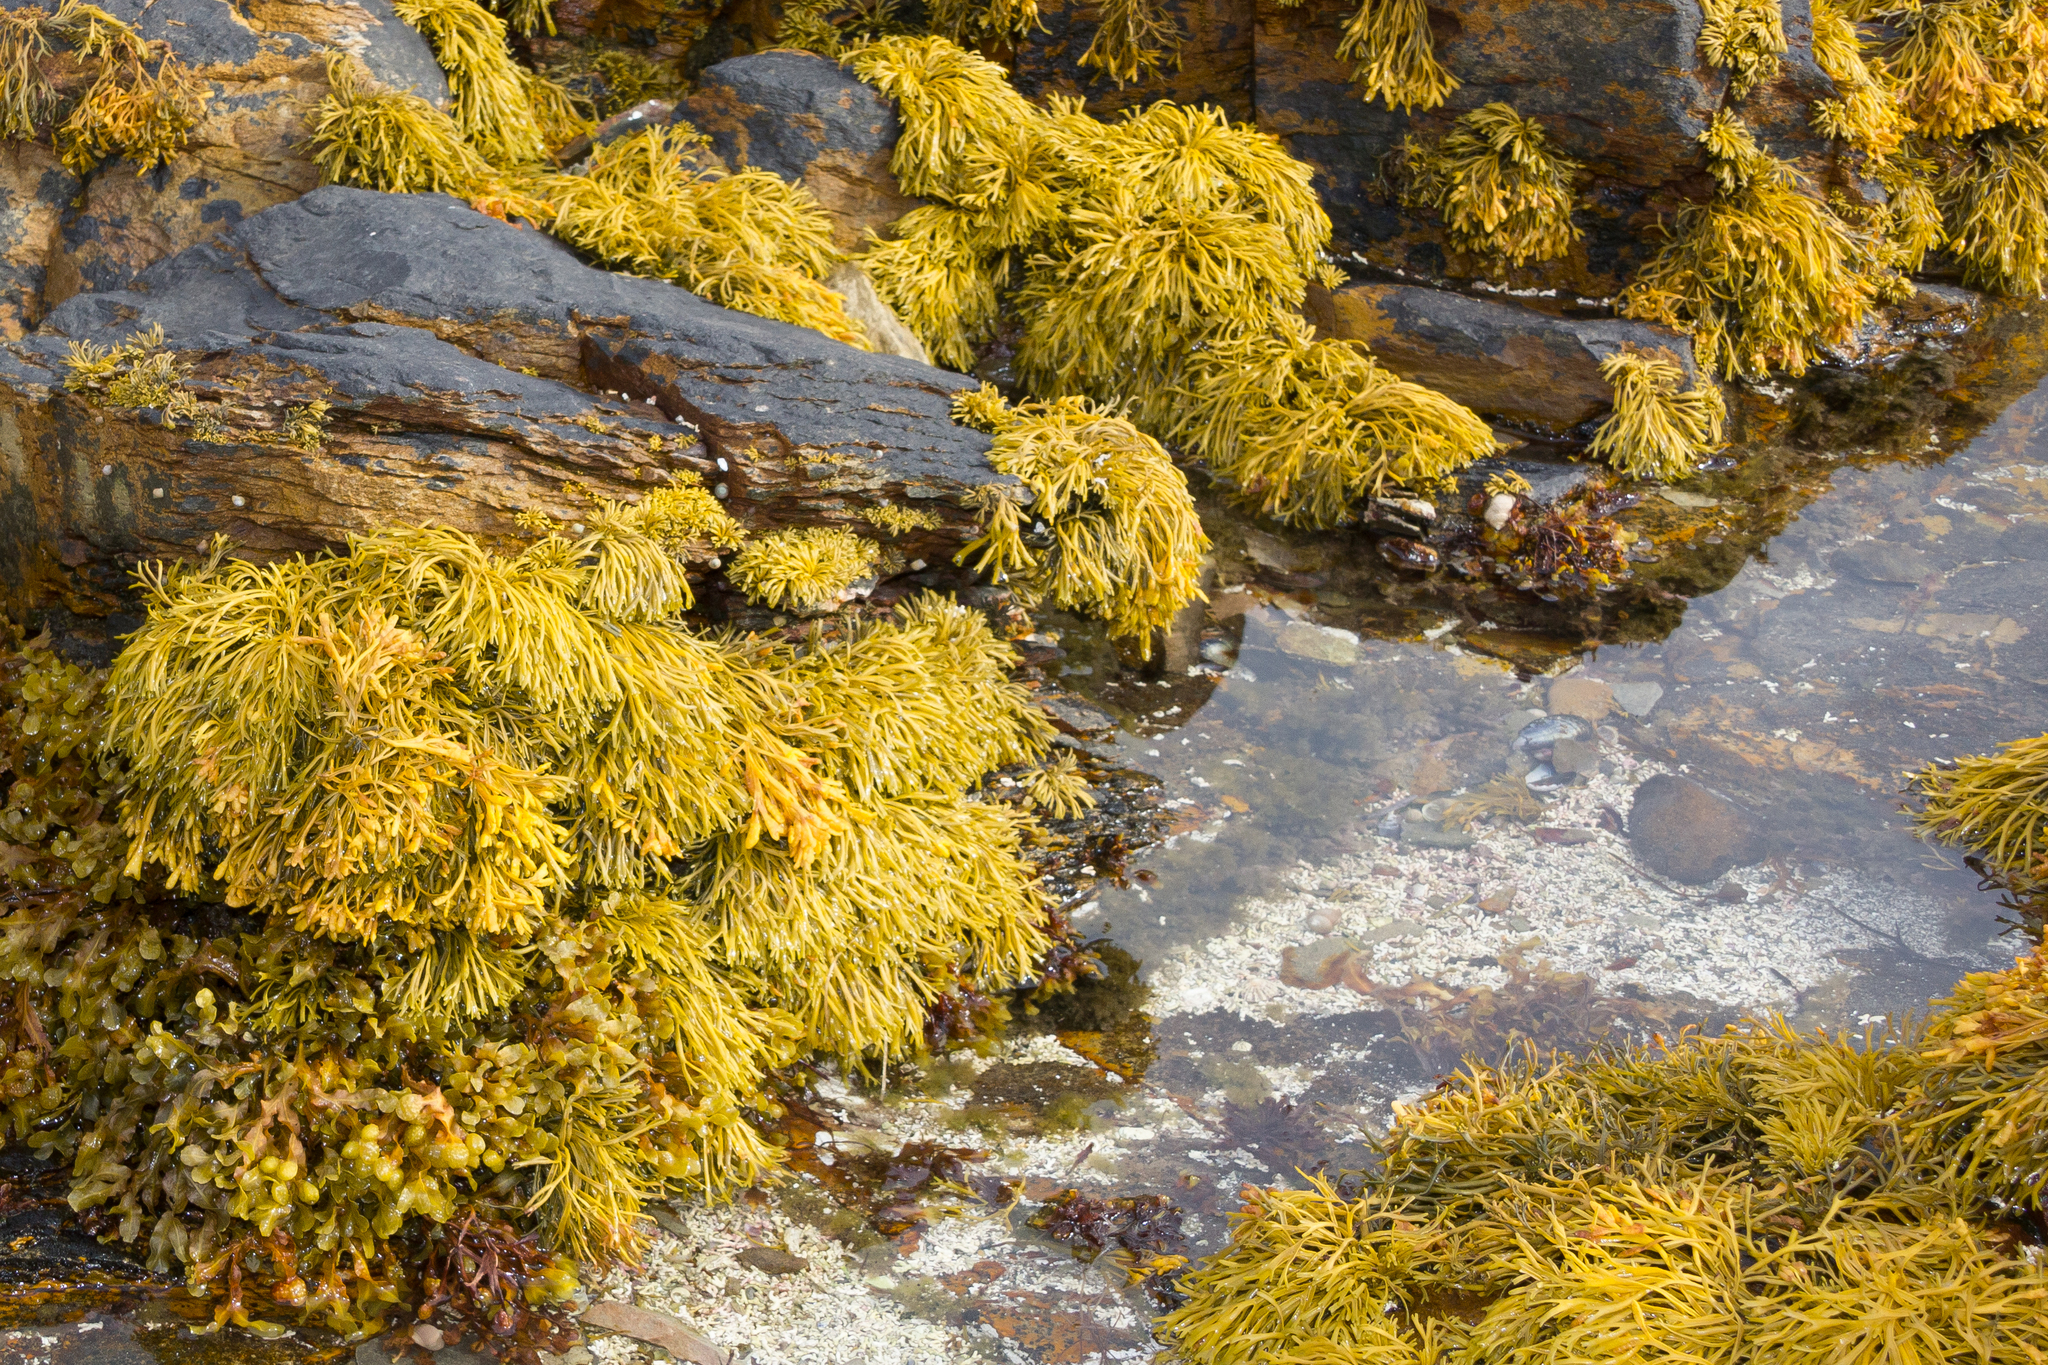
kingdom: Chromista
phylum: Ochrophyta
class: Phaeophyceae
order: Fucales
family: Fucaceae
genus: Pelvetia
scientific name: Pelvetia canaliculata
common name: Channelled wrack
